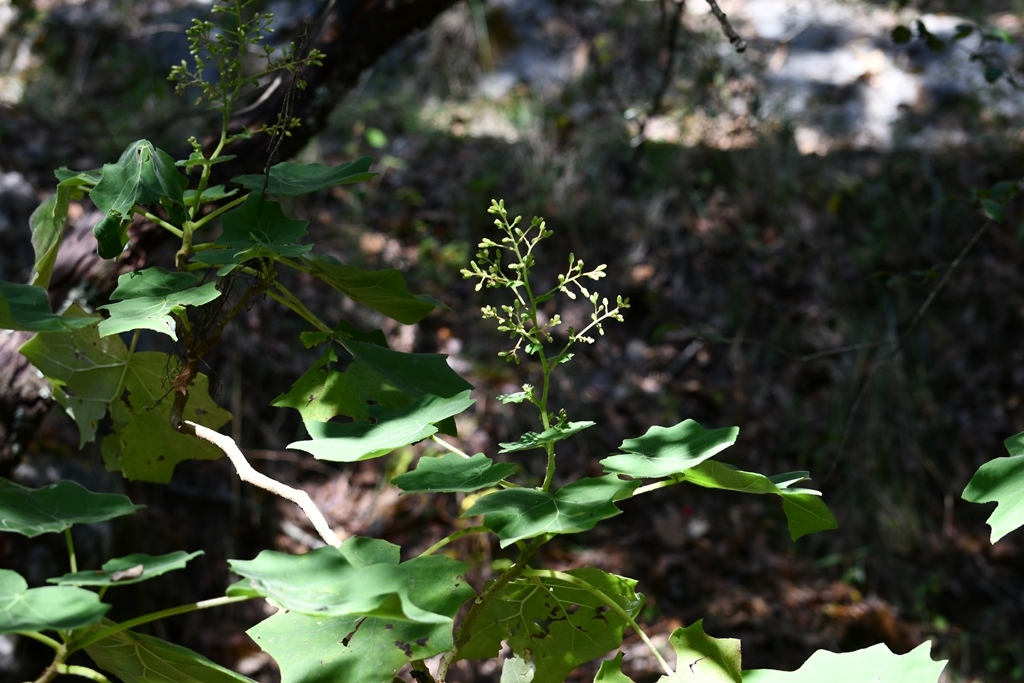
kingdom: Plantae
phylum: Tracheophyta
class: Magnoliopsida
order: Asterales
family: Asteraceae
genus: Roldana
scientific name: Roldana hartwegii
